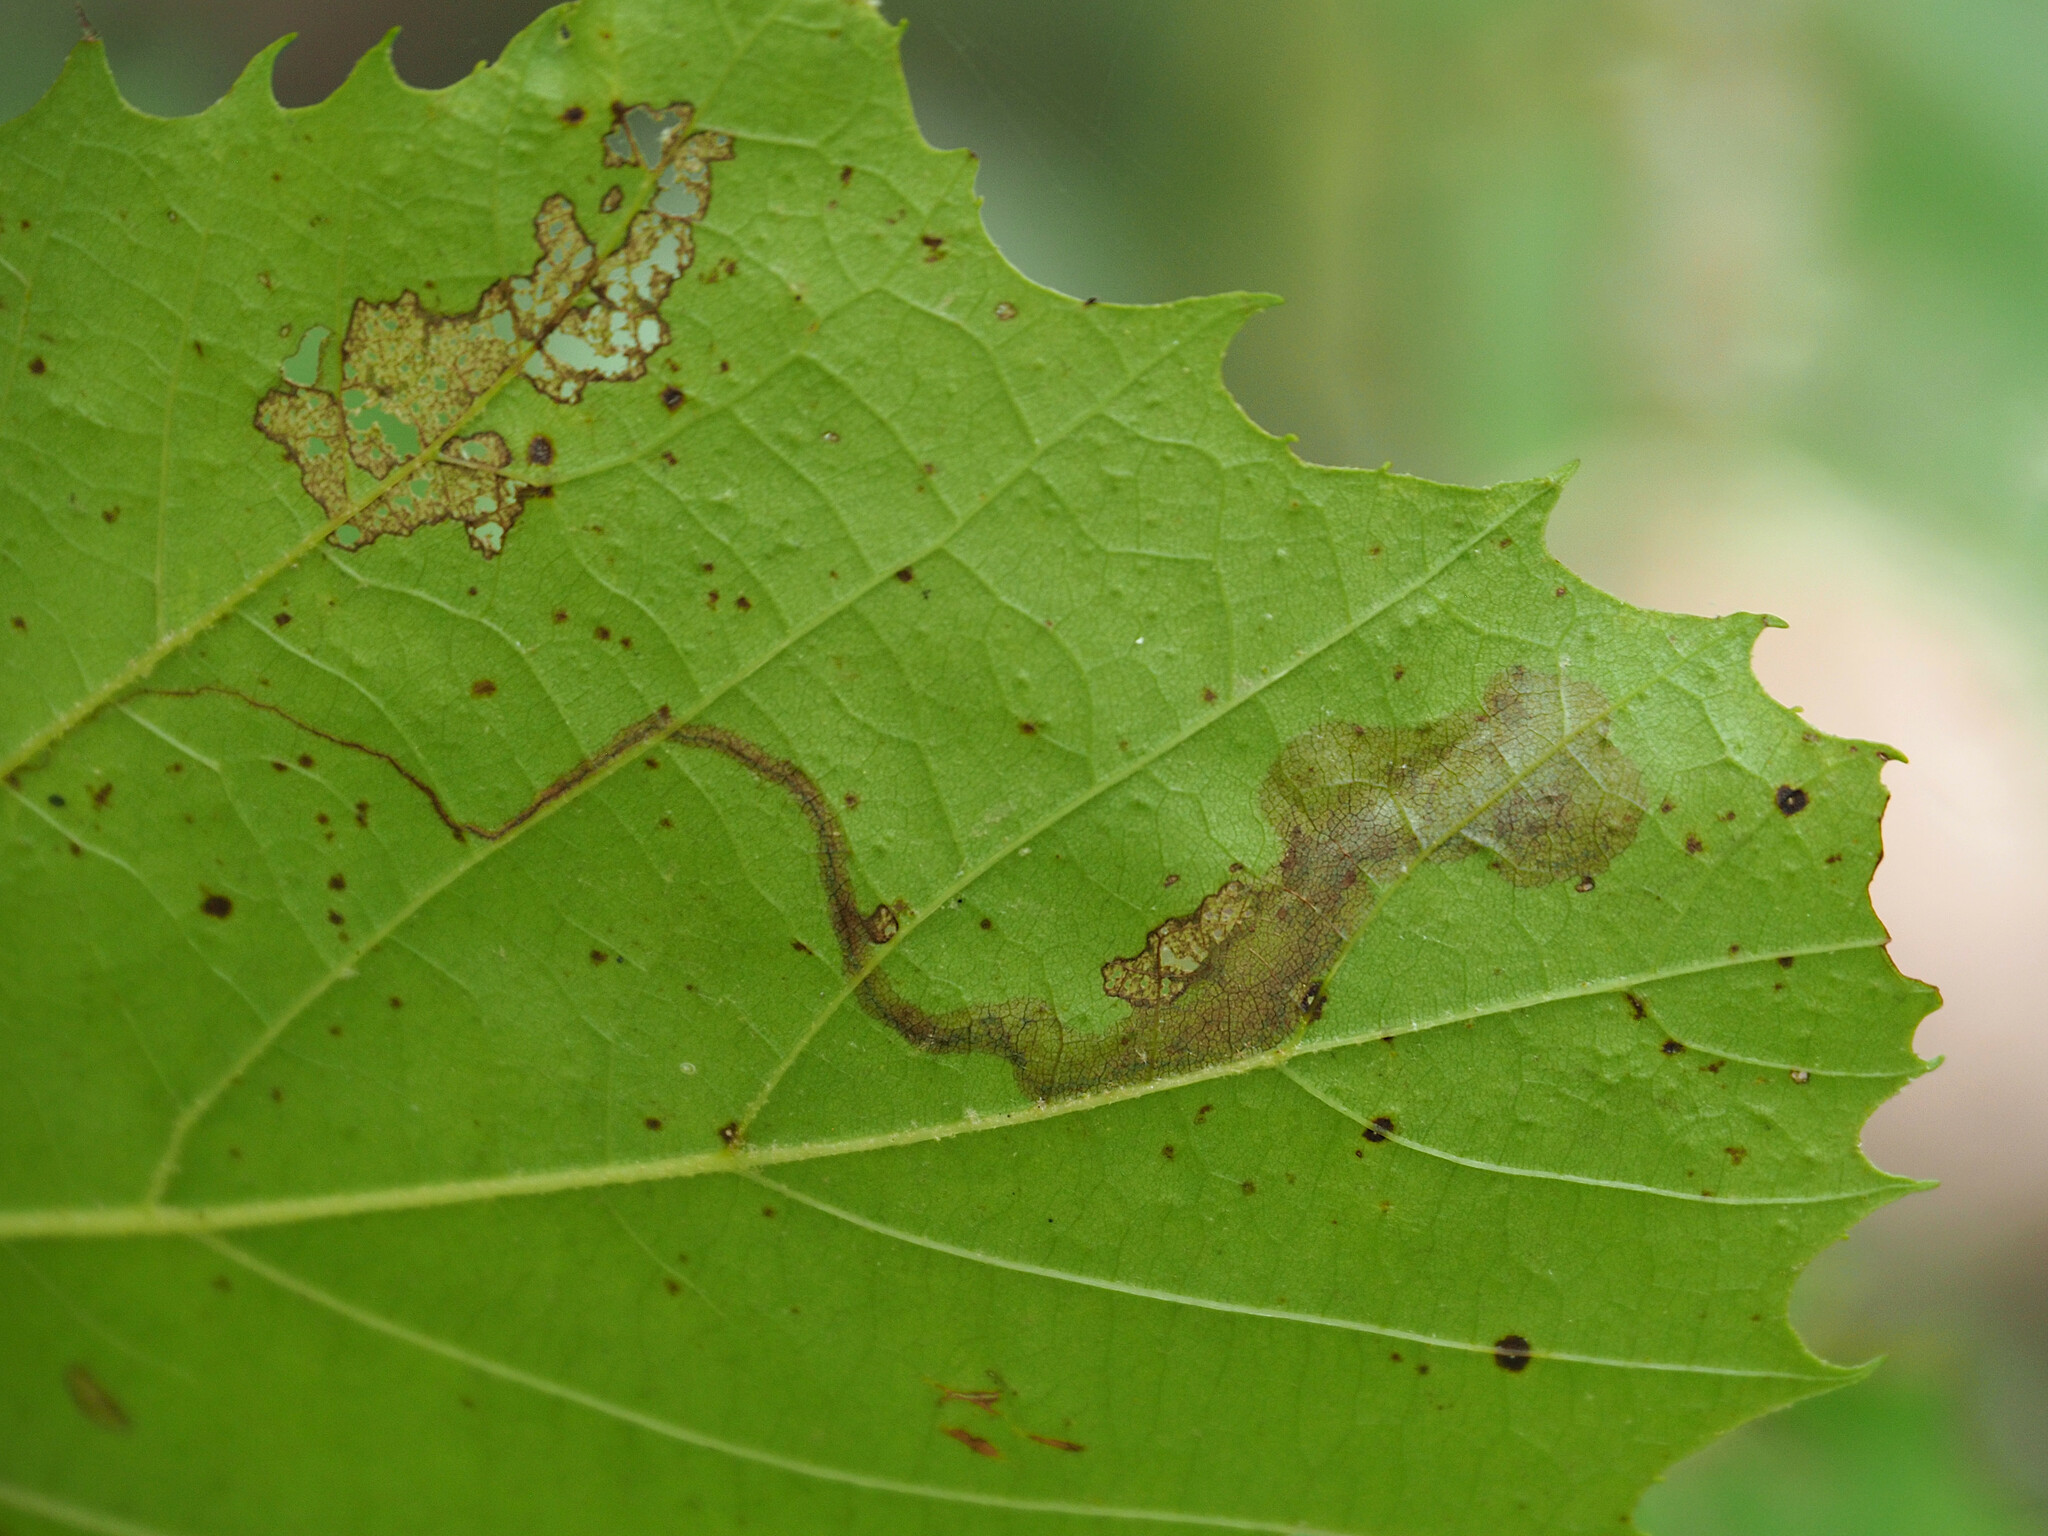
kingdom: Animalia
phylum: Arthropoda
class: Insecta
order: Lepidoptera
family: Nepticulidae
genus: Ectoedemia
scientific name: Ectoedemia clemensella
